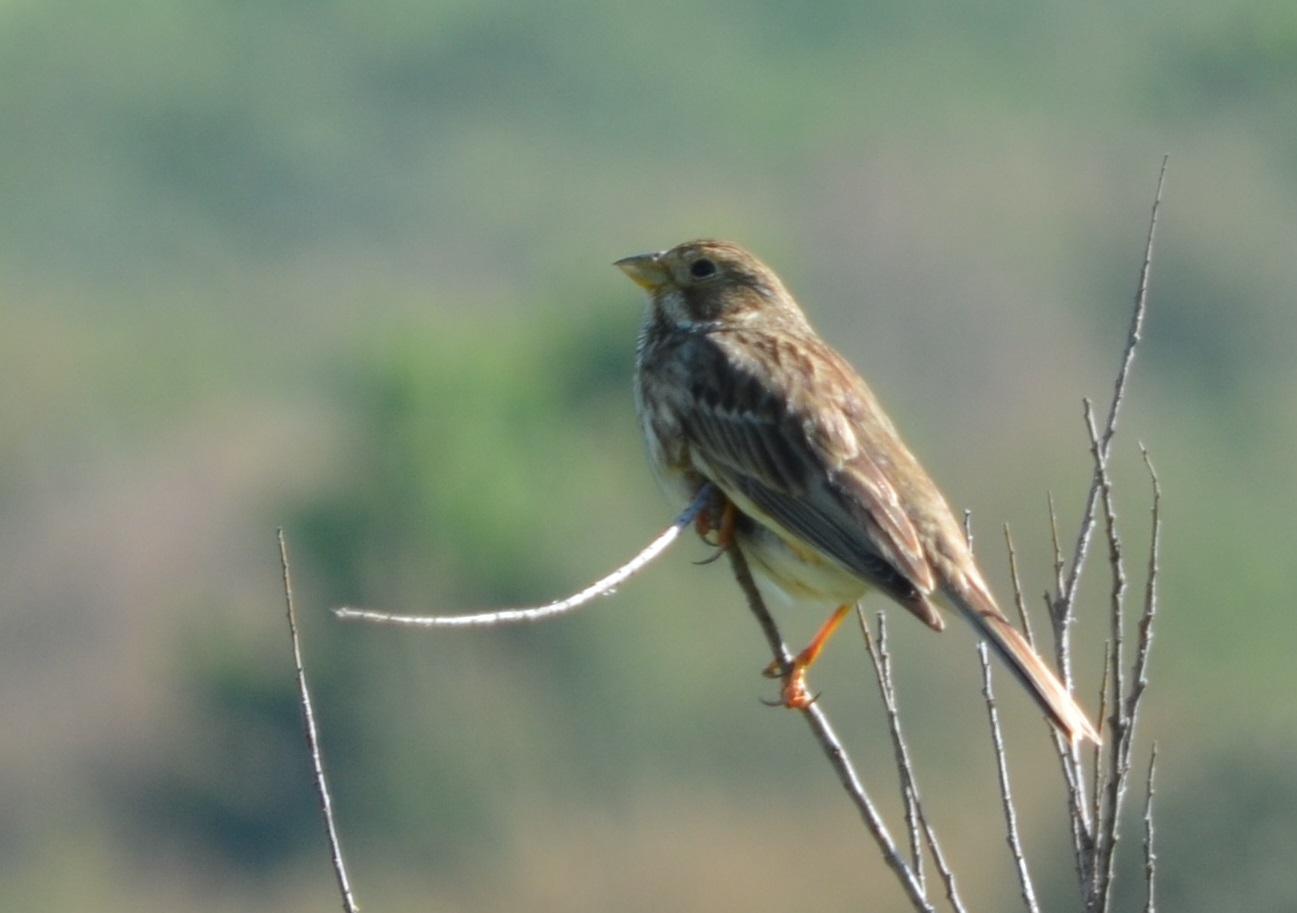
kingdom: Animalia
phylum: Chordata
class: Aves
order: Passeriformes
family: Emberizidae
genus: Emberiza
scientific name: Emberiza calandra
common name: Corn bunting
